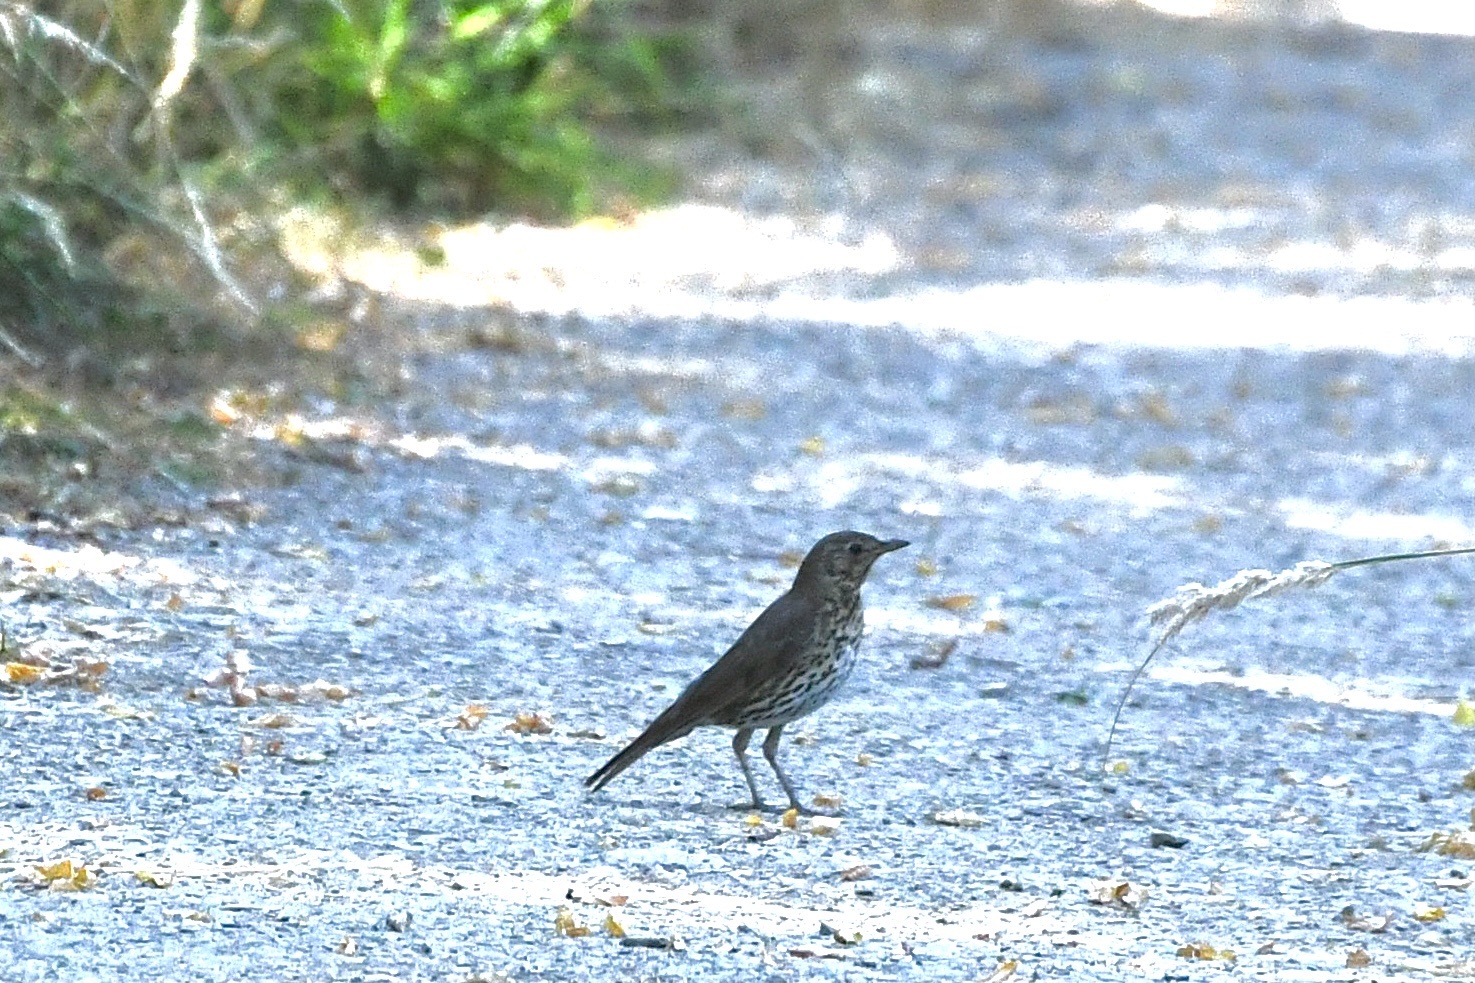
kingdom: Animalia
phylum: Chordata
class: Aves
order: Passeriformes
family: Turdidae
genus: Turdus
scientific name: Turdus philomelos
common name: Song thrush
